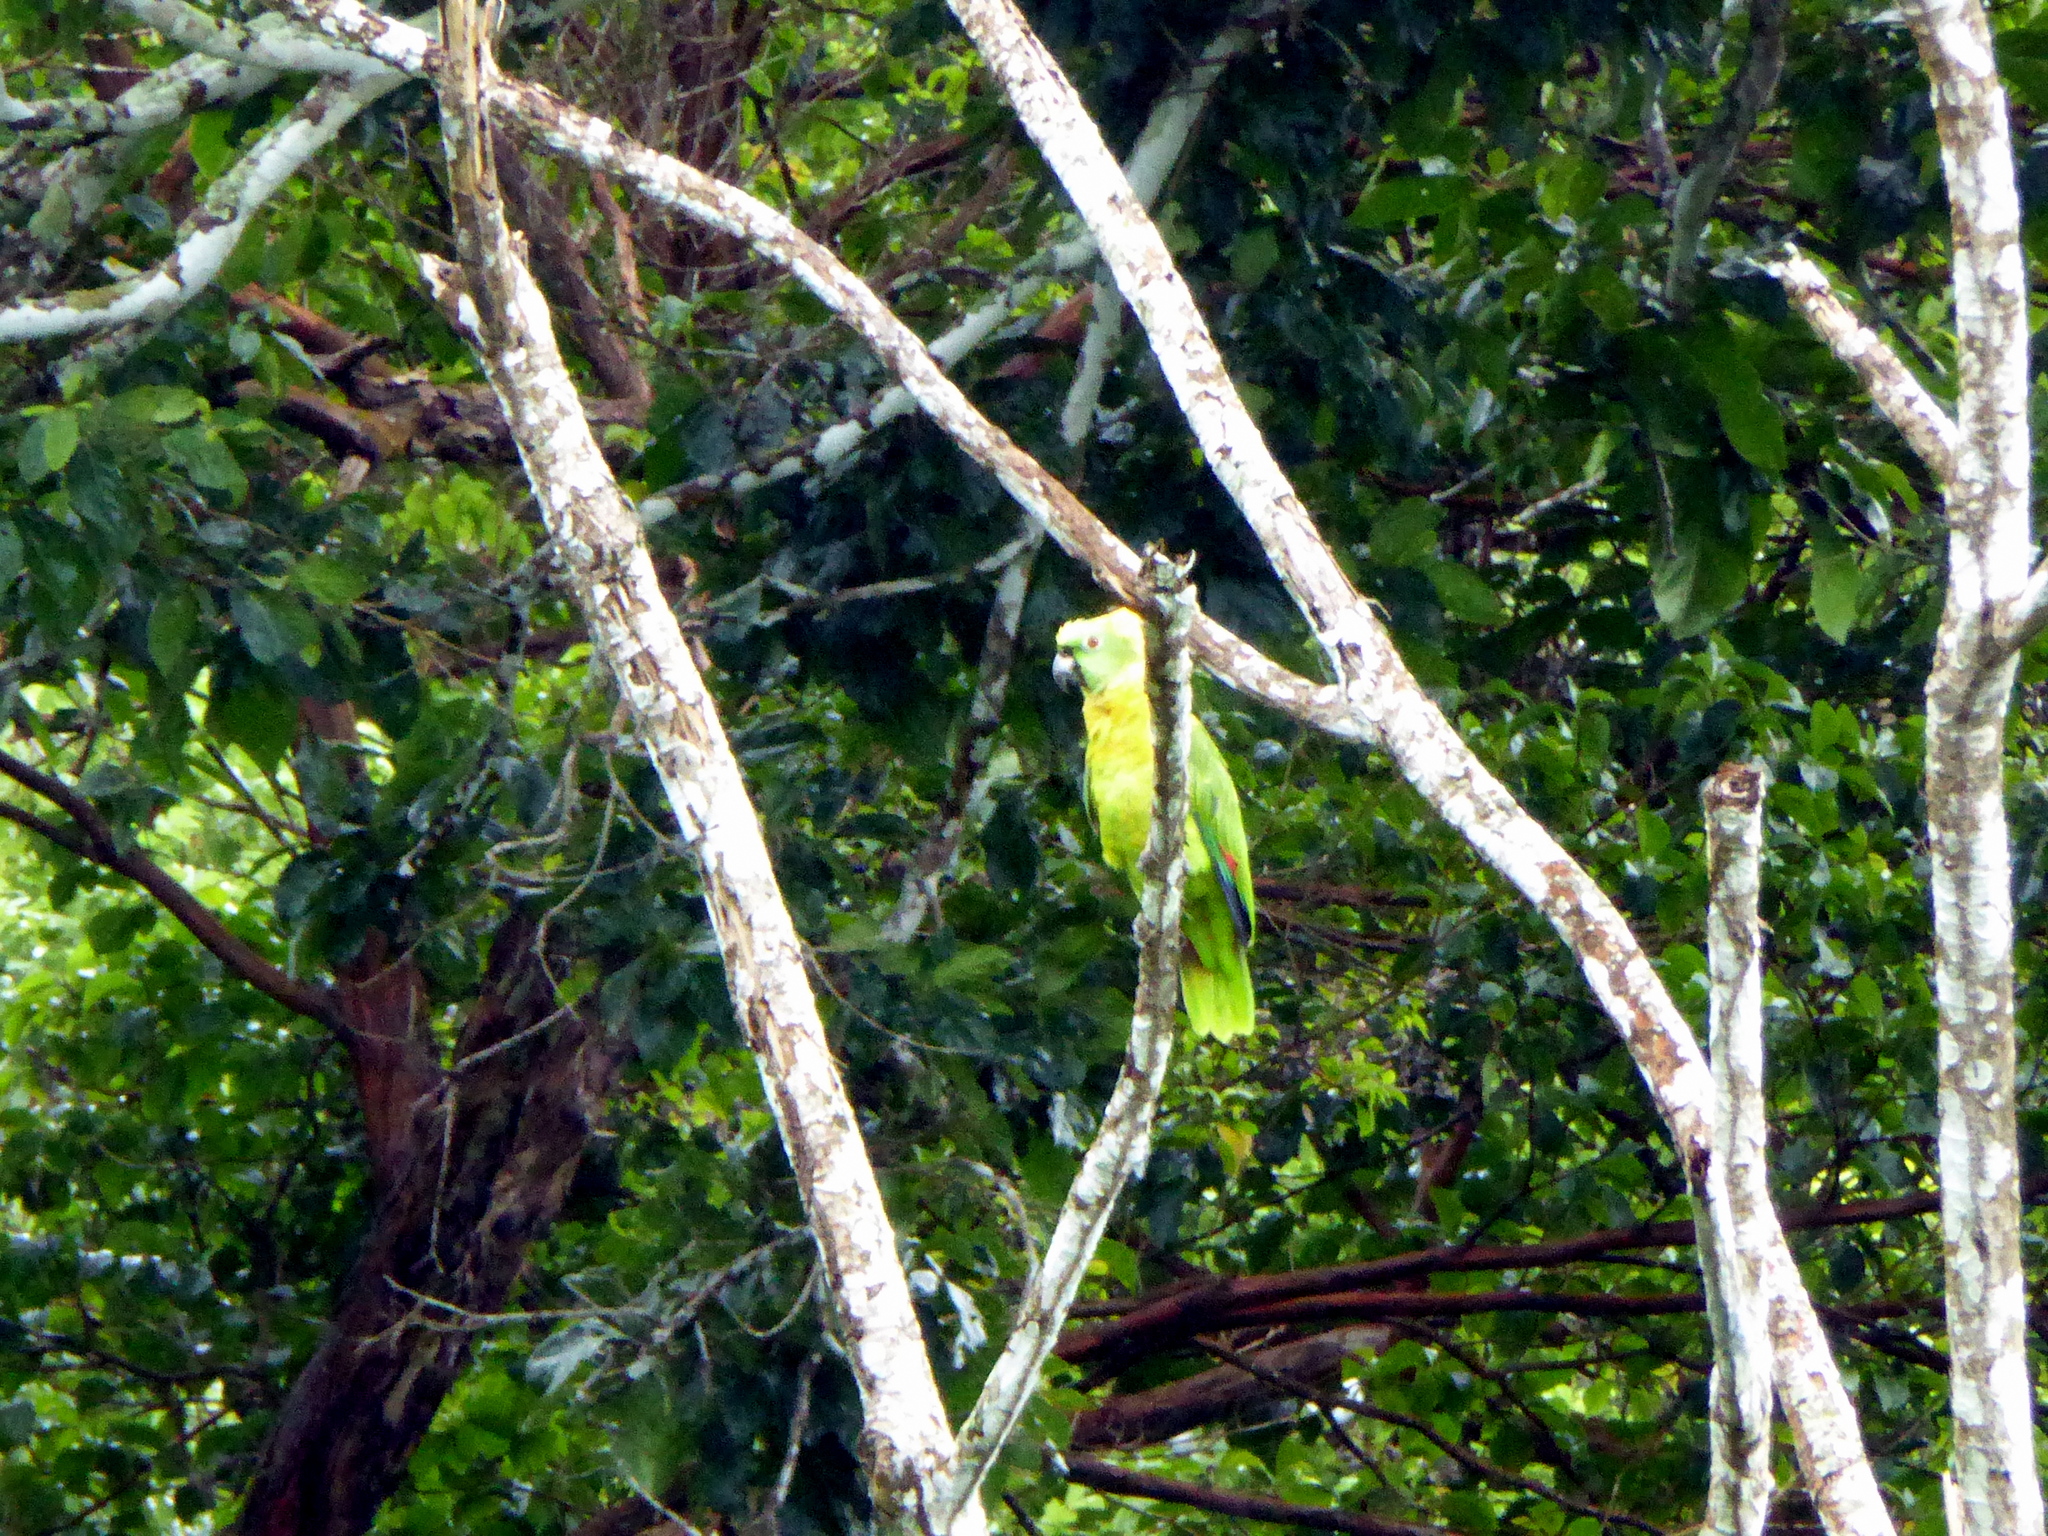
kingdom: Animalia
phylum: Chordata
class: Aves
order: Psittaciformes
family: Psittacidae
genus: Amazona
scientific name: Amazona auropalliata
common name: Yellow-naped amazon
